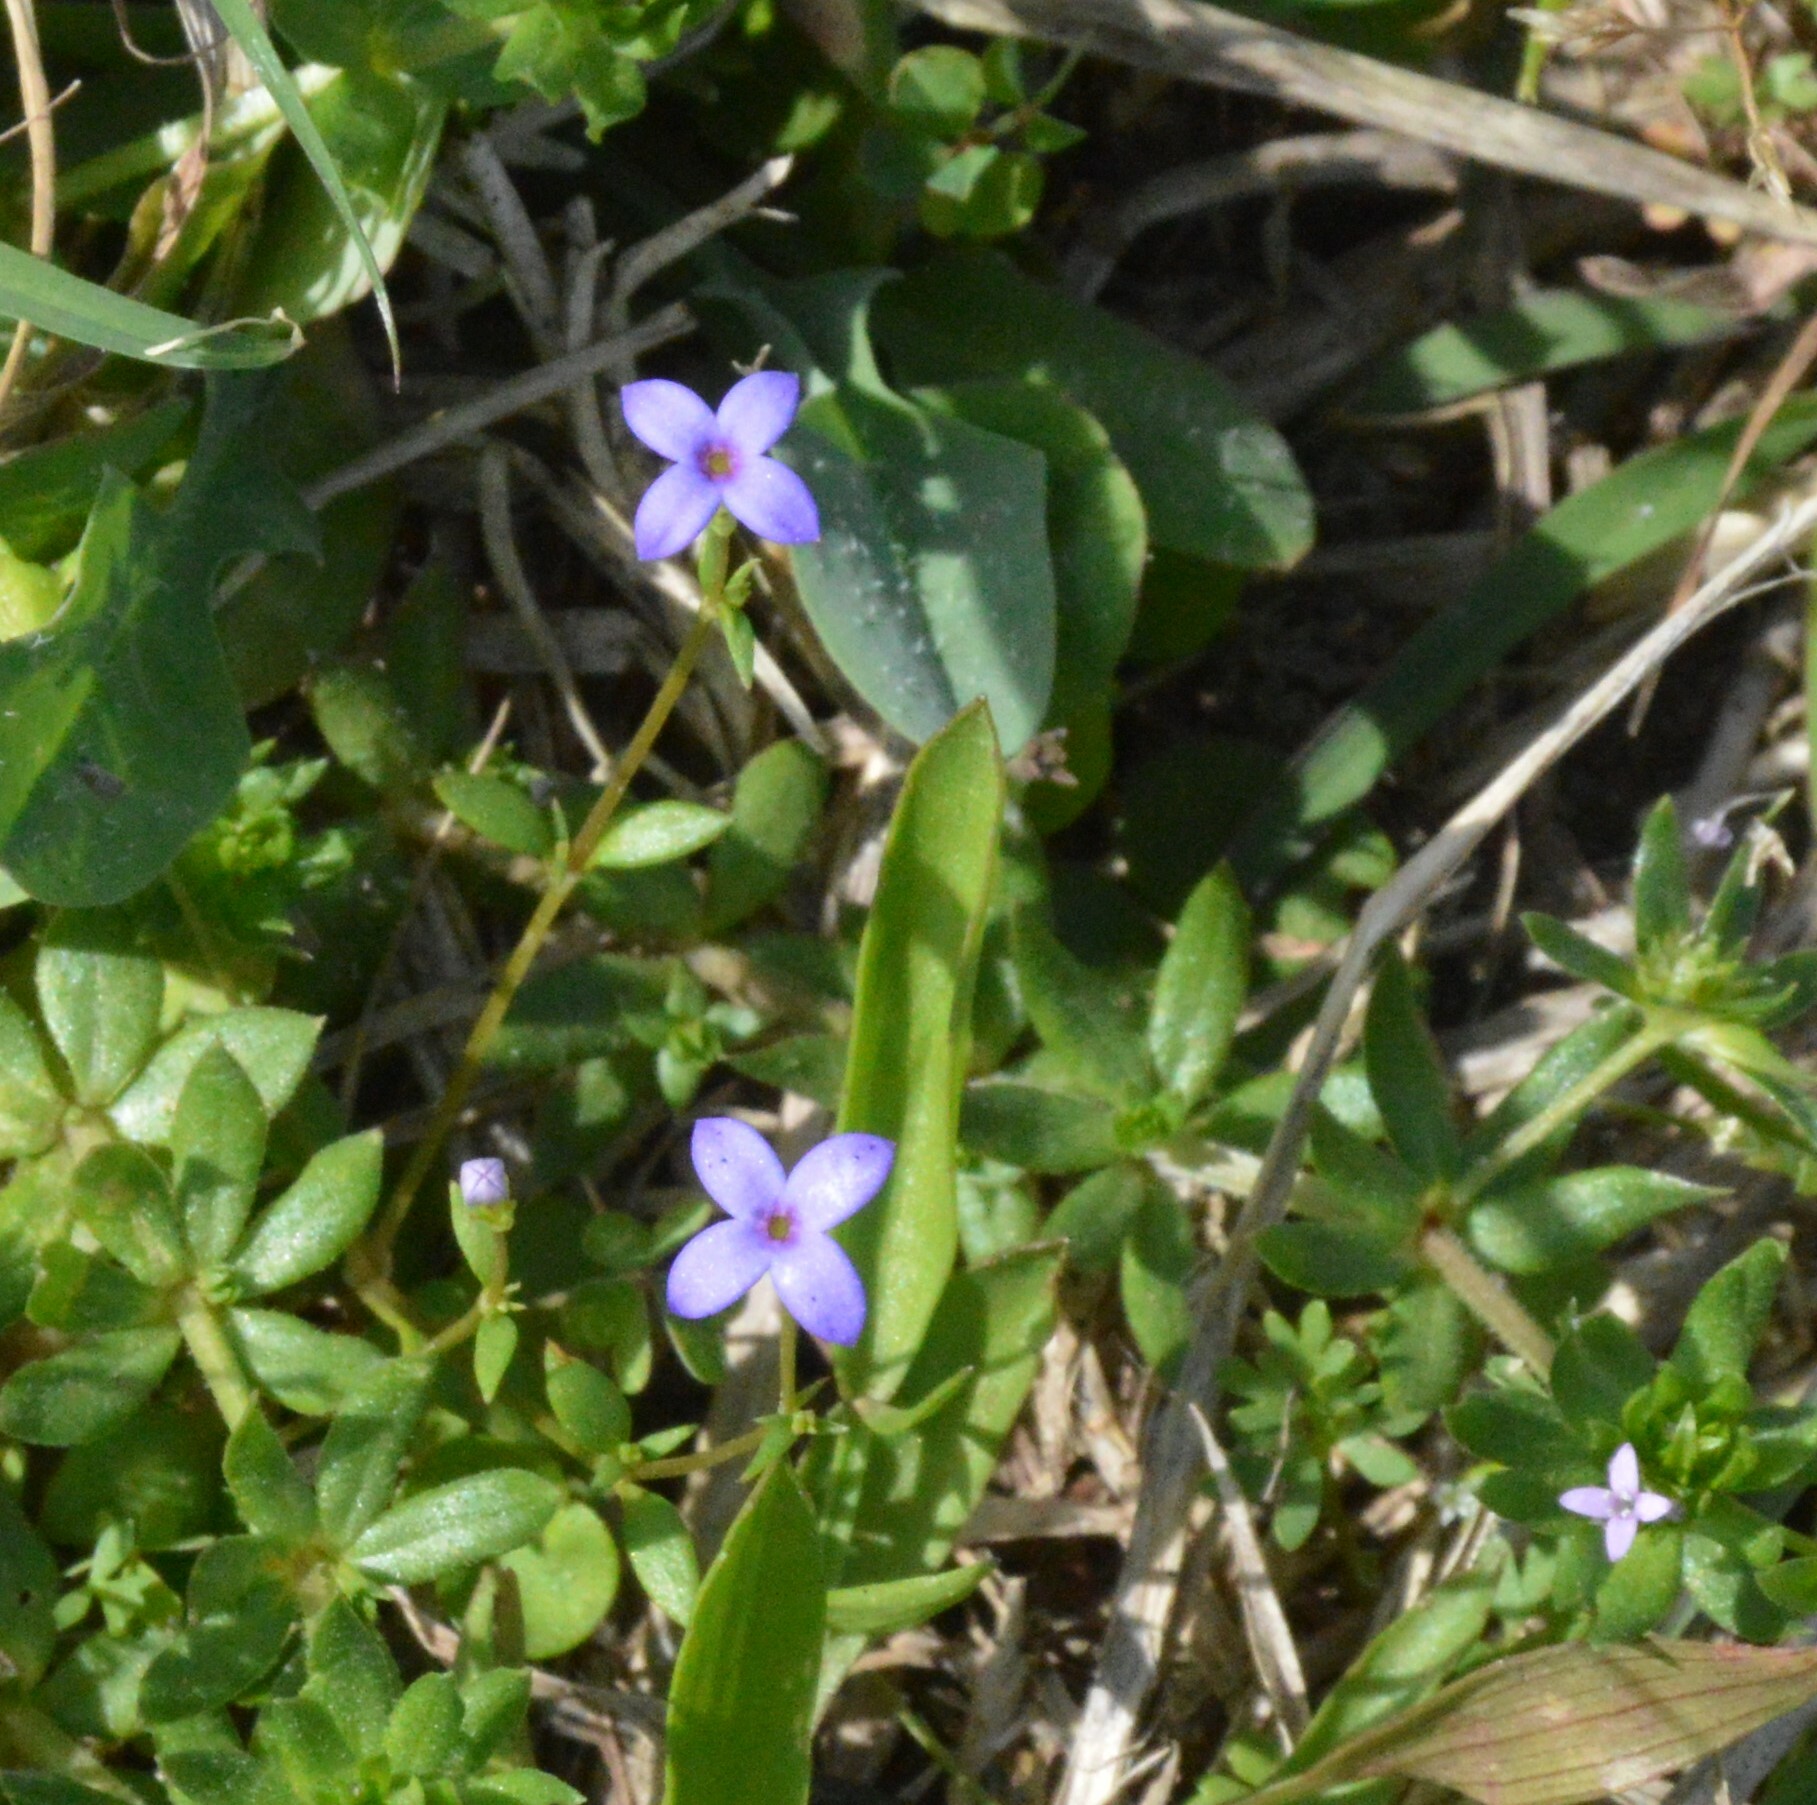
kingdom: Plantae
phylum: Tracheophyta
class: Magnoliopsida
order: Gentianales
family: Rubiaceae
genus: Houstonia
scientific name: Houstonia pusilla
